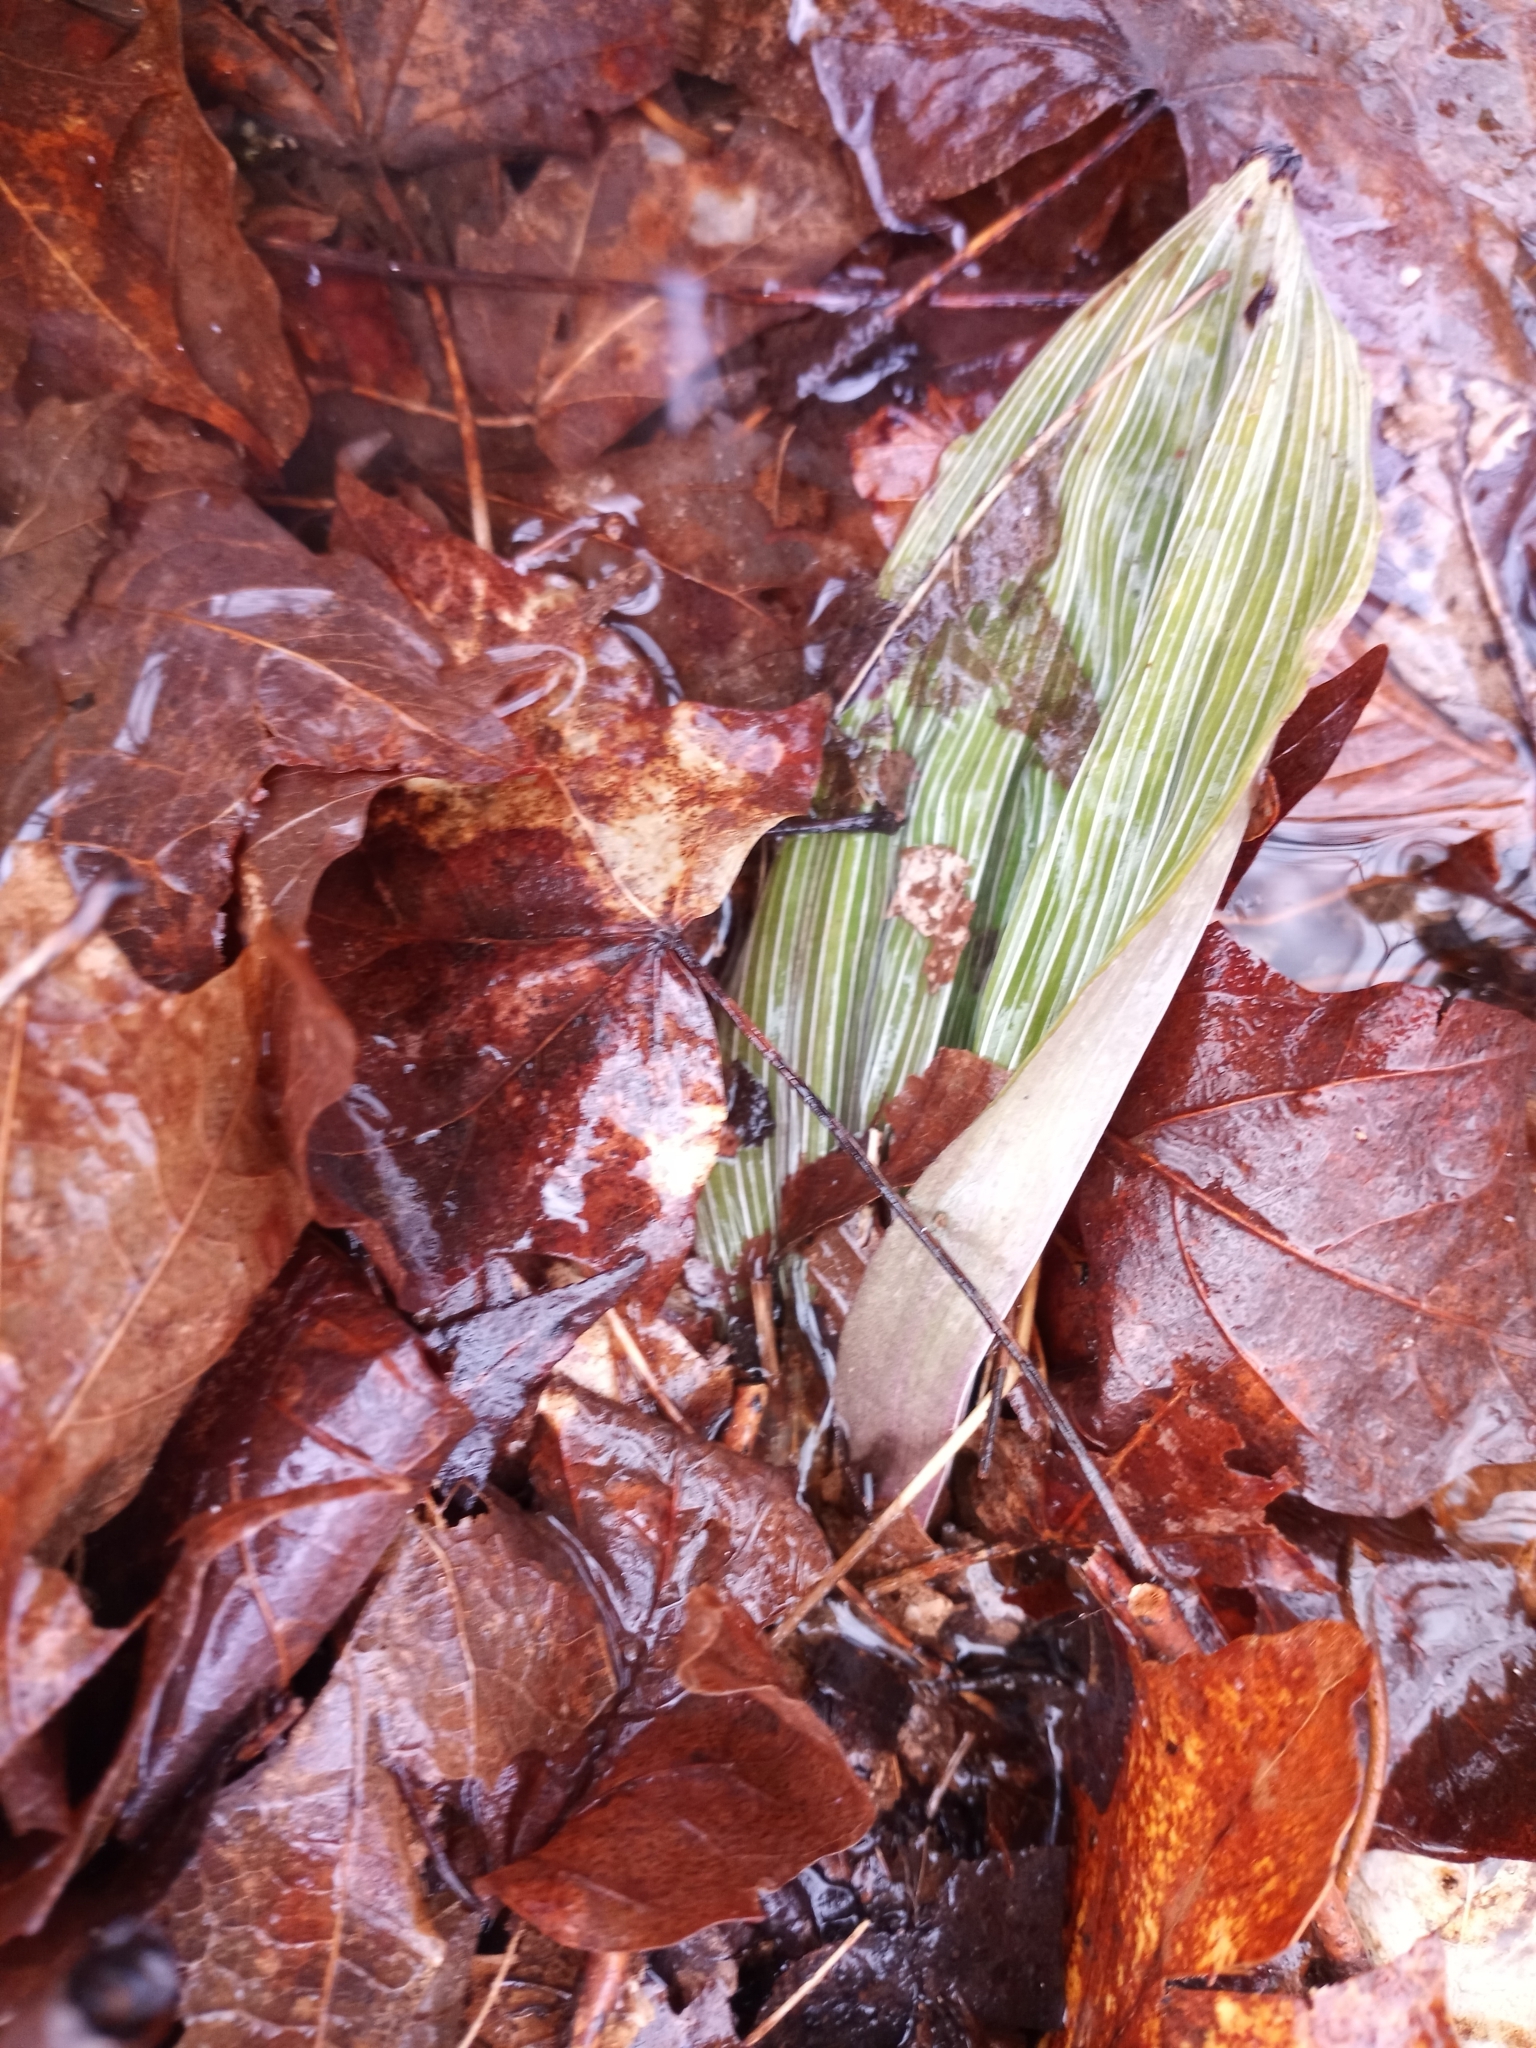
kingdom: Plantae
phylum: Tracheophyta
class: Liliopsida
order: Asparagales
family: Orchidaceae
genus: Aplectrum
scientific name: Aplectrum hyemale
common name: Adam-and-eve
